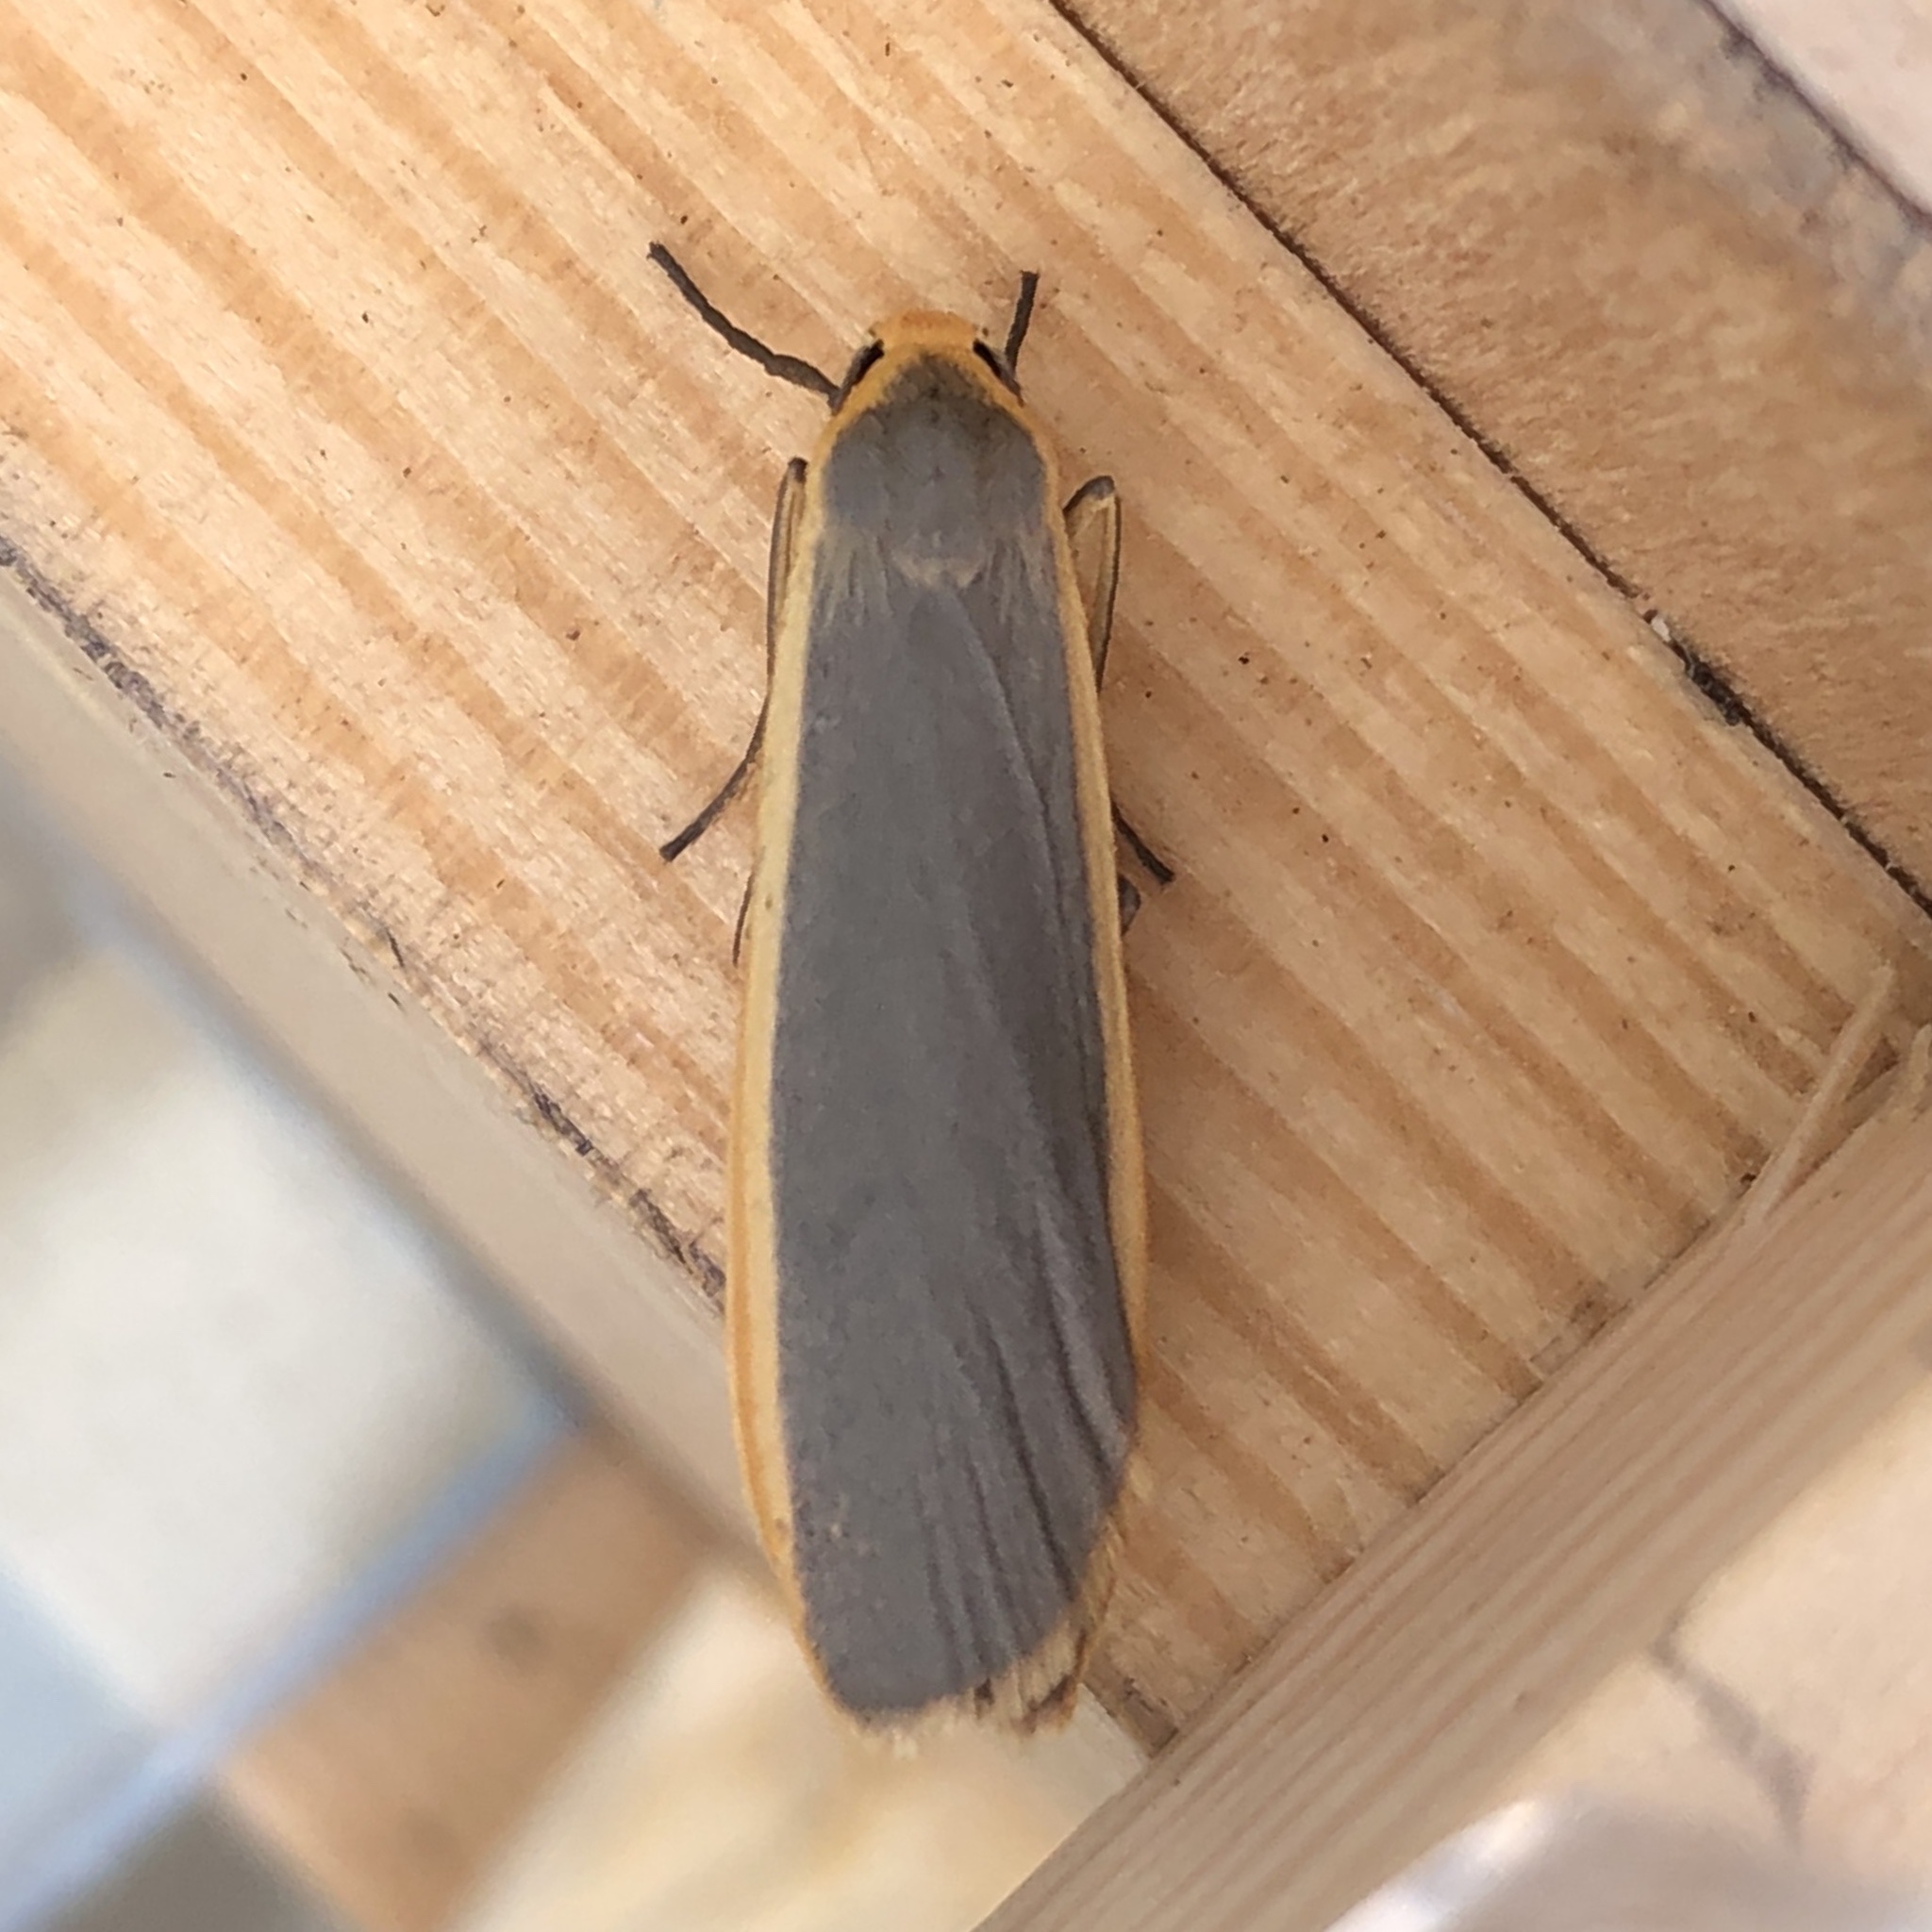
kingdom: Animalia
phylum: Arthropoda
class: Insecta
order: Lepidoptera
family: Erebidae
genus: Nyea
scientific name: Nyea lurideola
